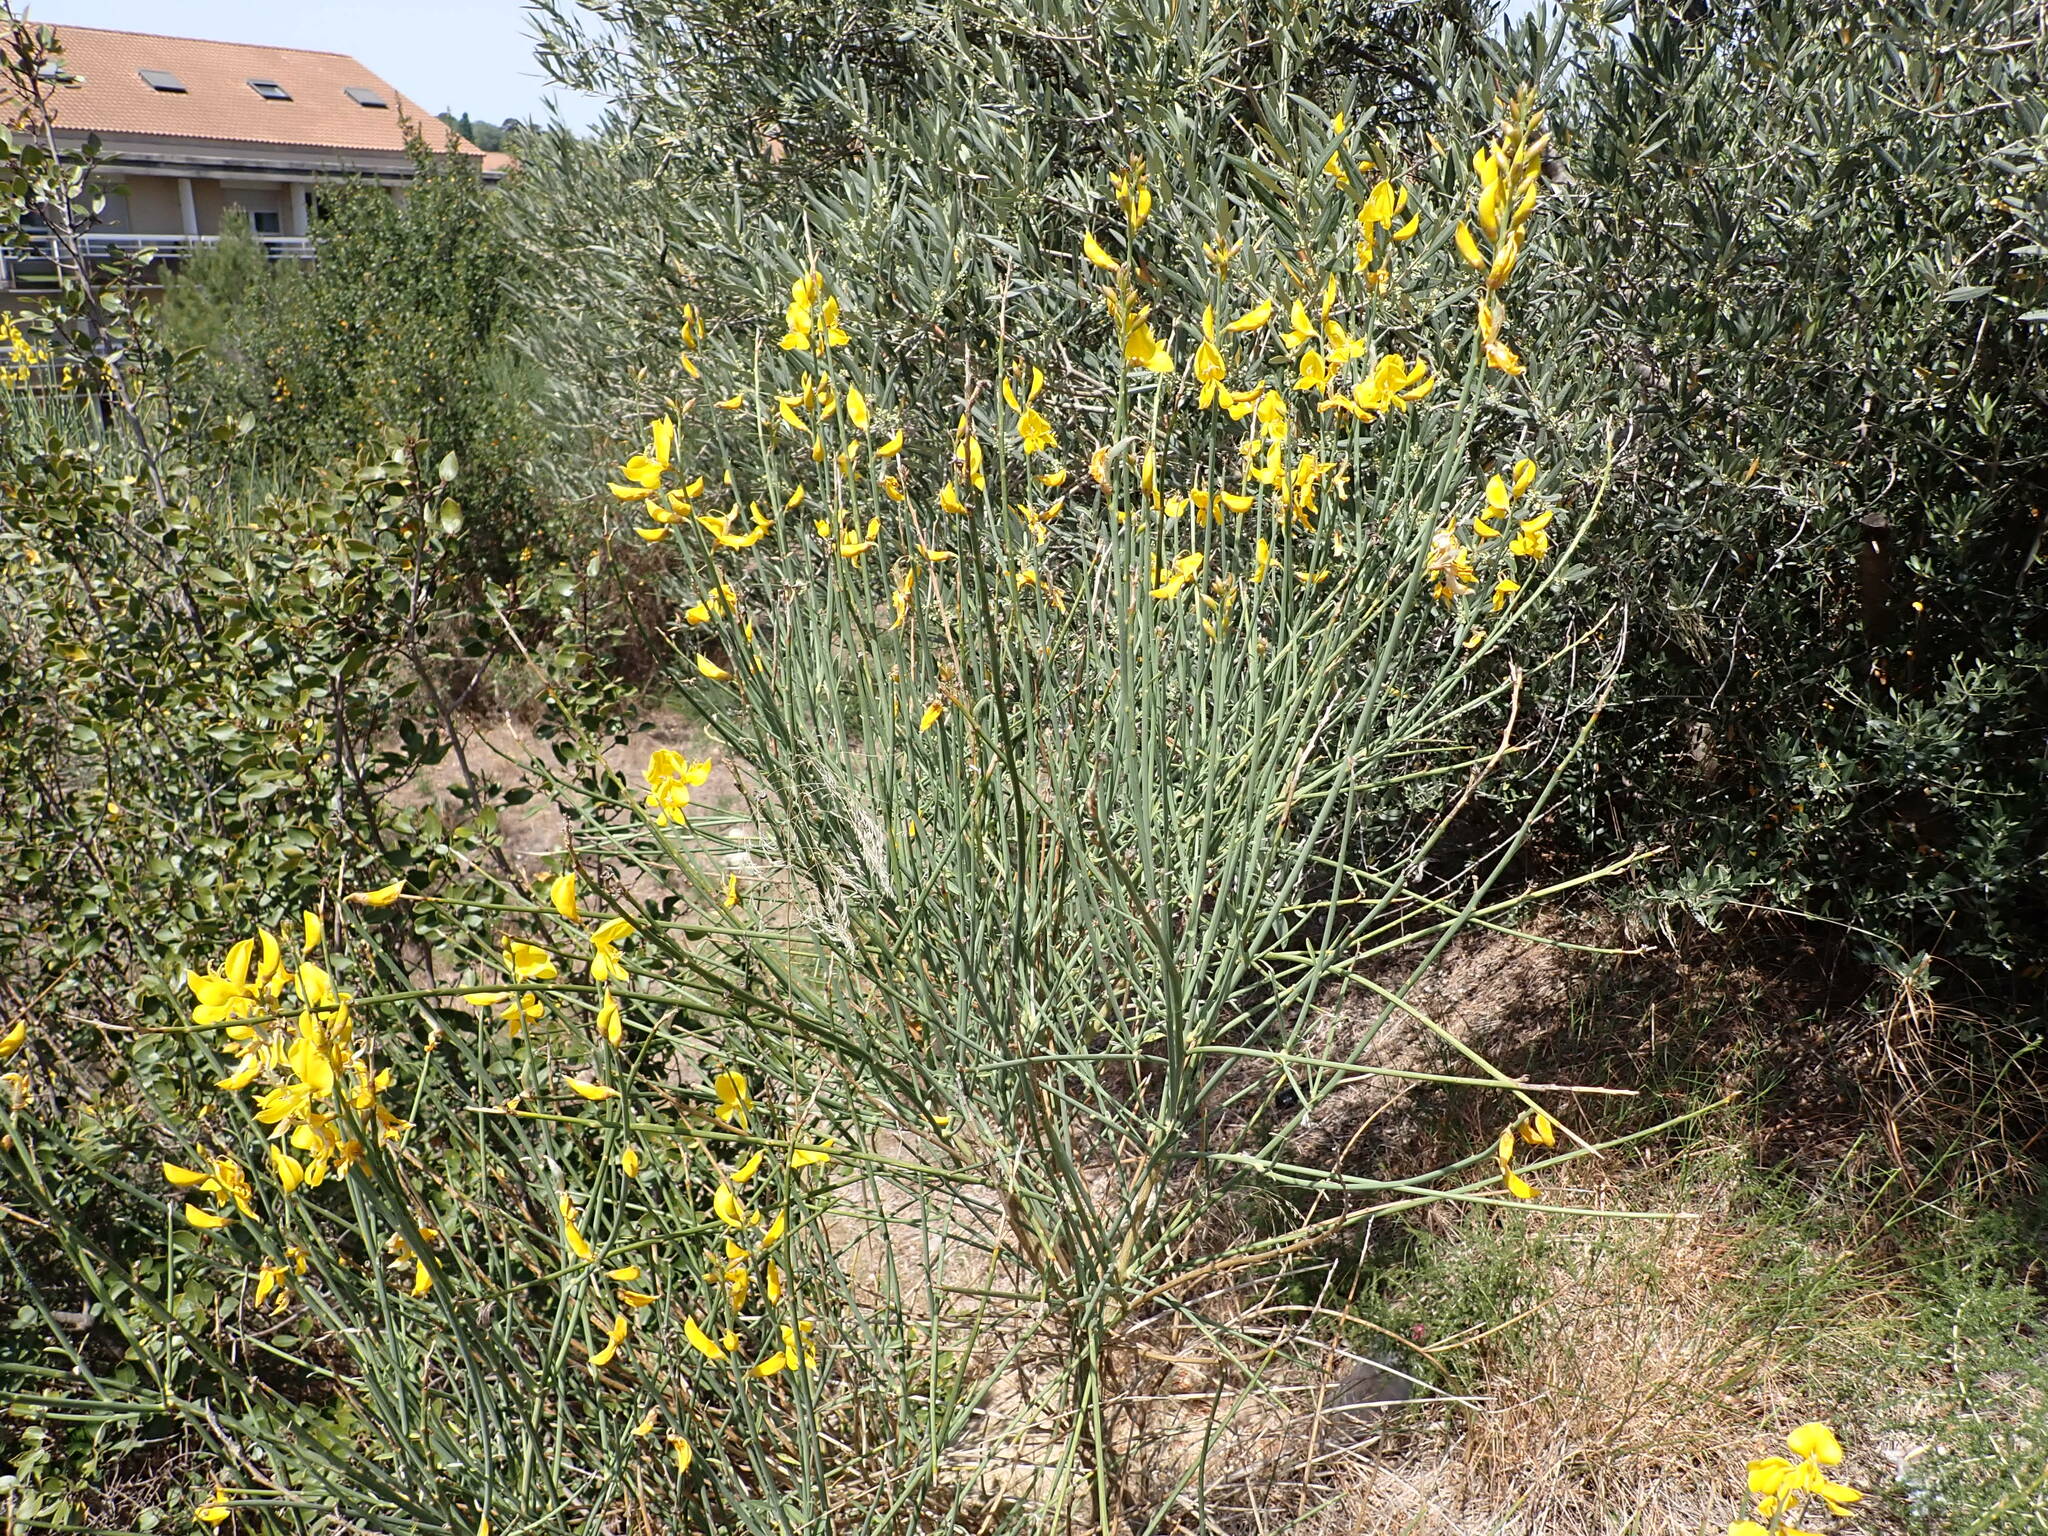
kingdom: Plantae
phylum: Tracheophyta
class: Magnoliopsida
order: Fabales
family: Fabaceae
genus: Spartium
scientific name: Spartium junceum
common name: Spanish broom
